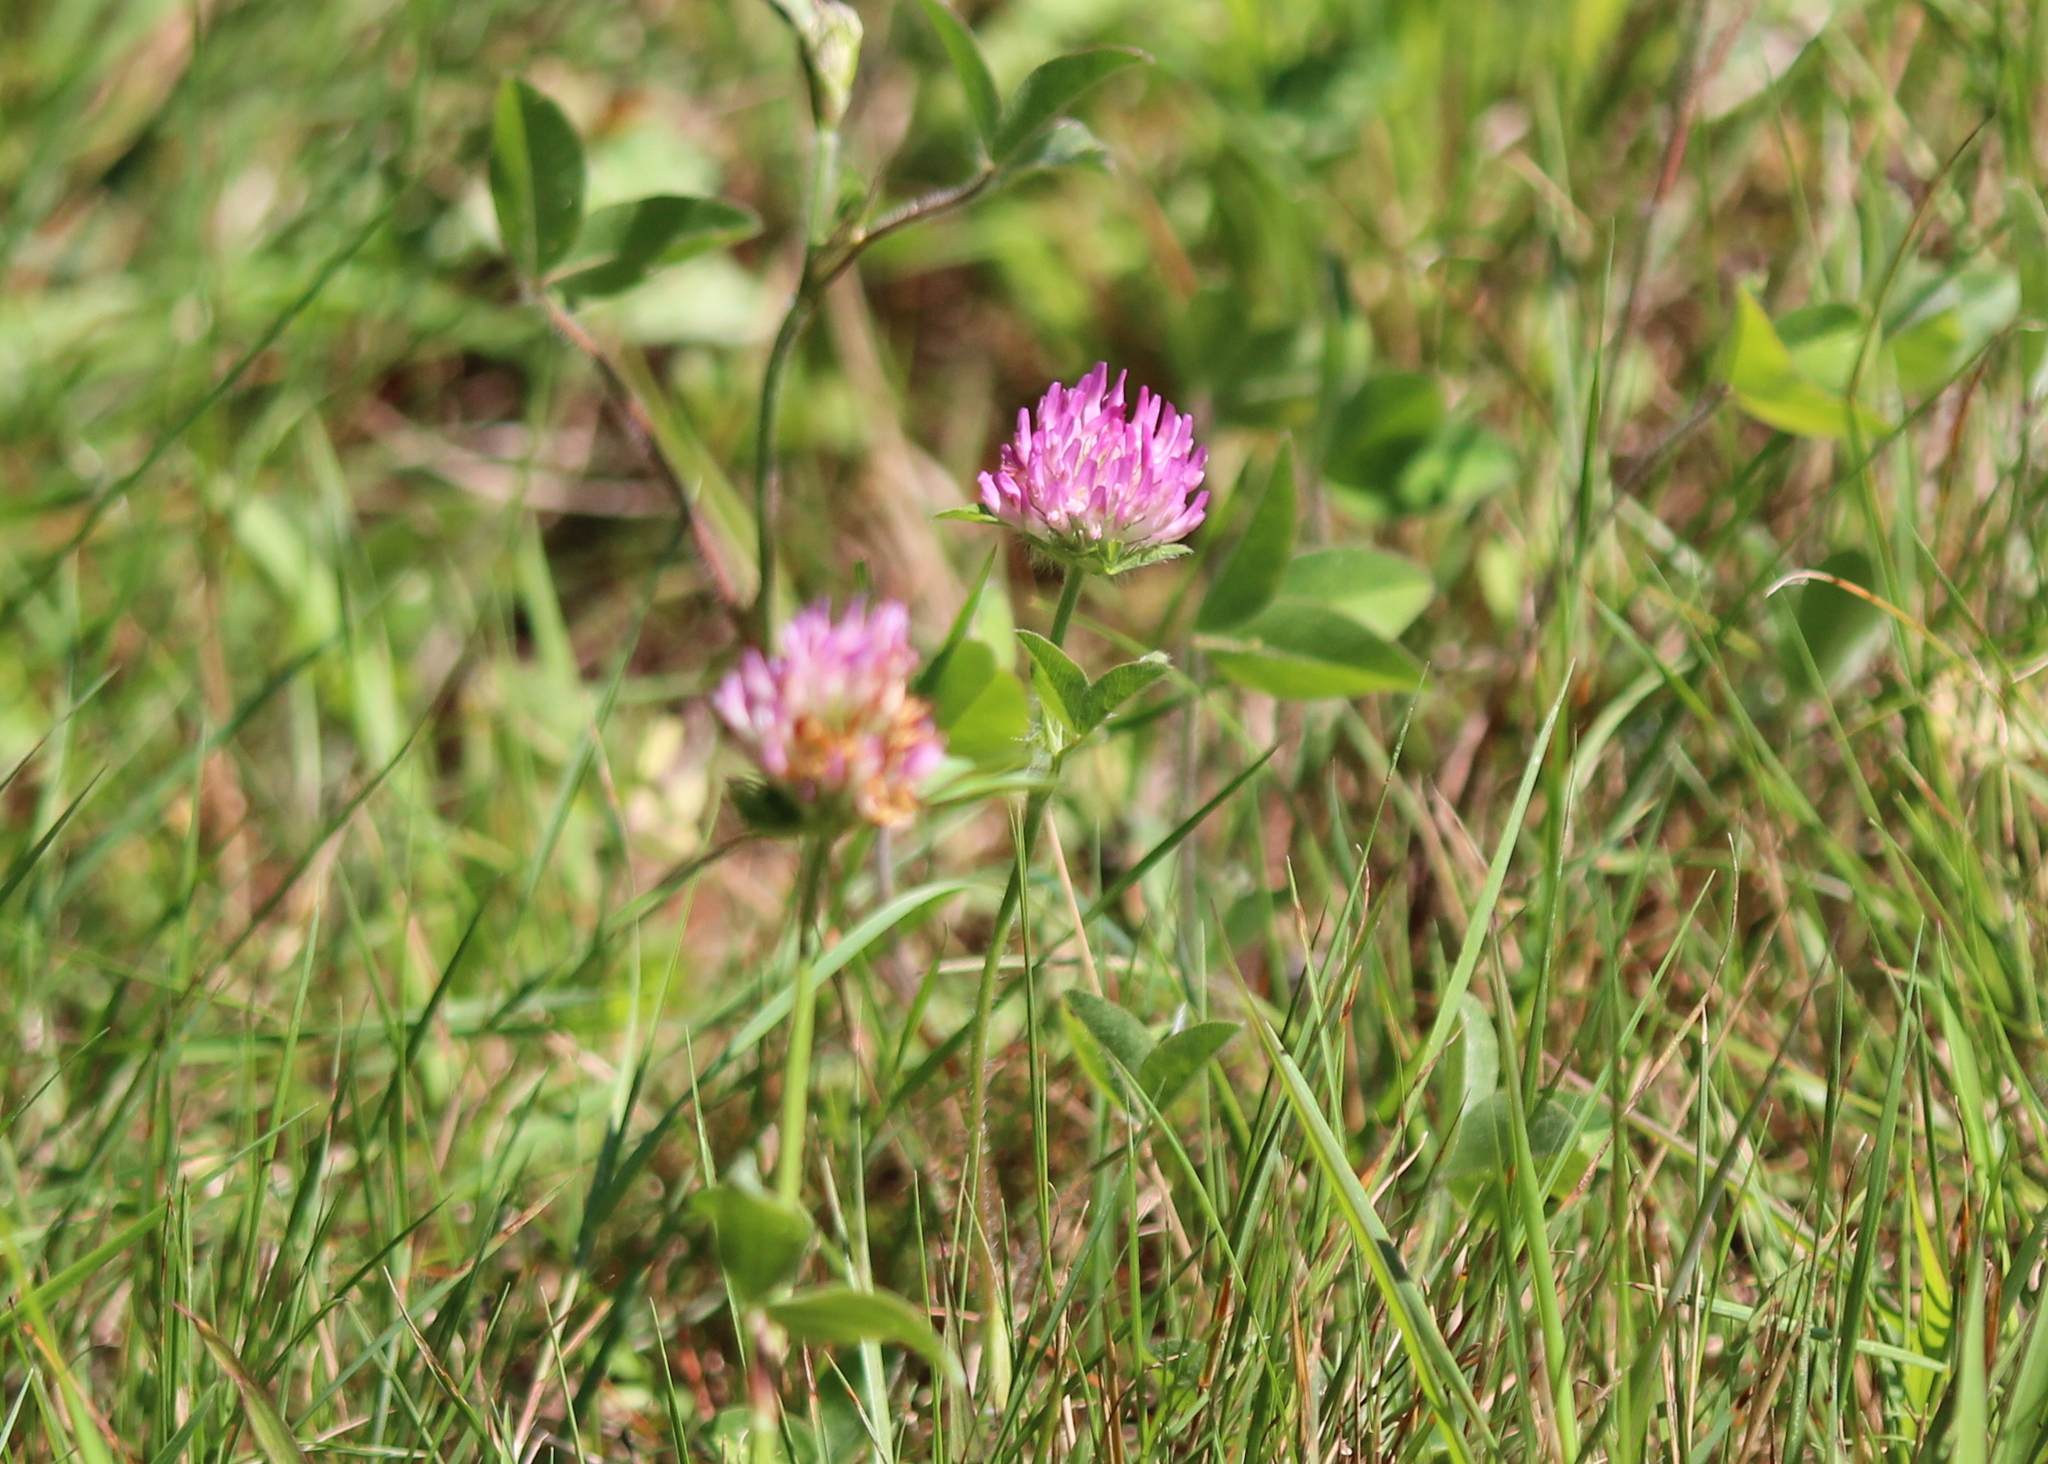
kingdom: Plantae
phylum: Tracheophyta
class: Magnoliopsida
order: Fabales
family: Fabaceae
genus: Trifolium
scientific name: Trifolium pratense
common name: Red clover
